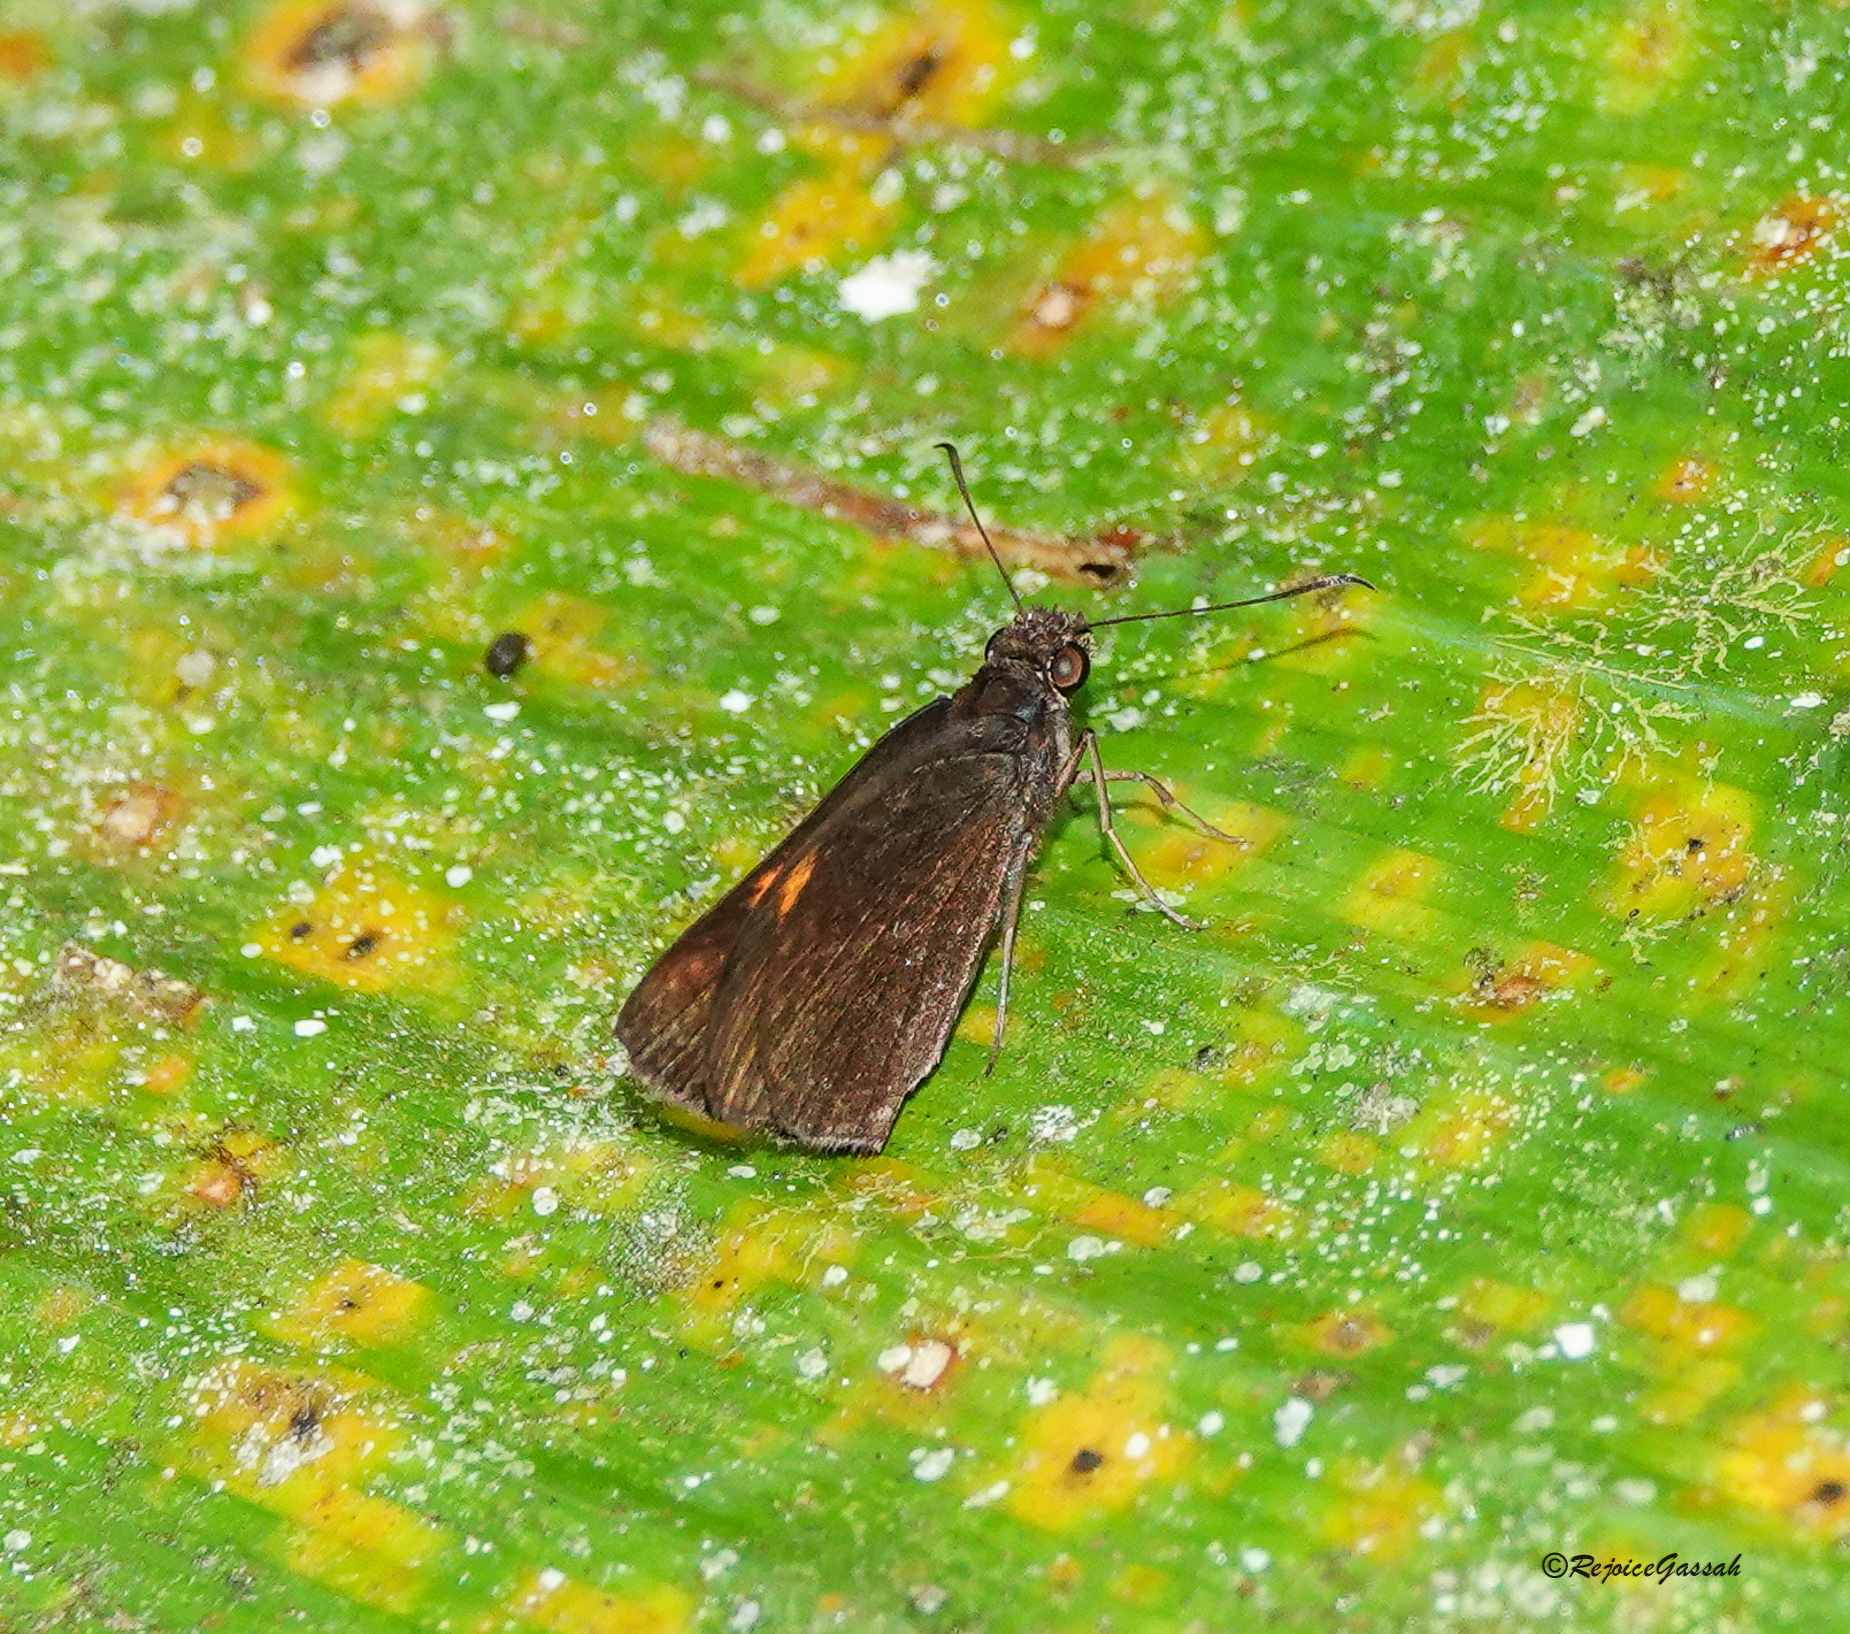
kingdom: Animalia
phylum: Arthropoda
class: Insecta
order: Lepidoptera
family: Hesperiidae
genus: Koruthaialos
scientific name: Koruthaialos sindu
